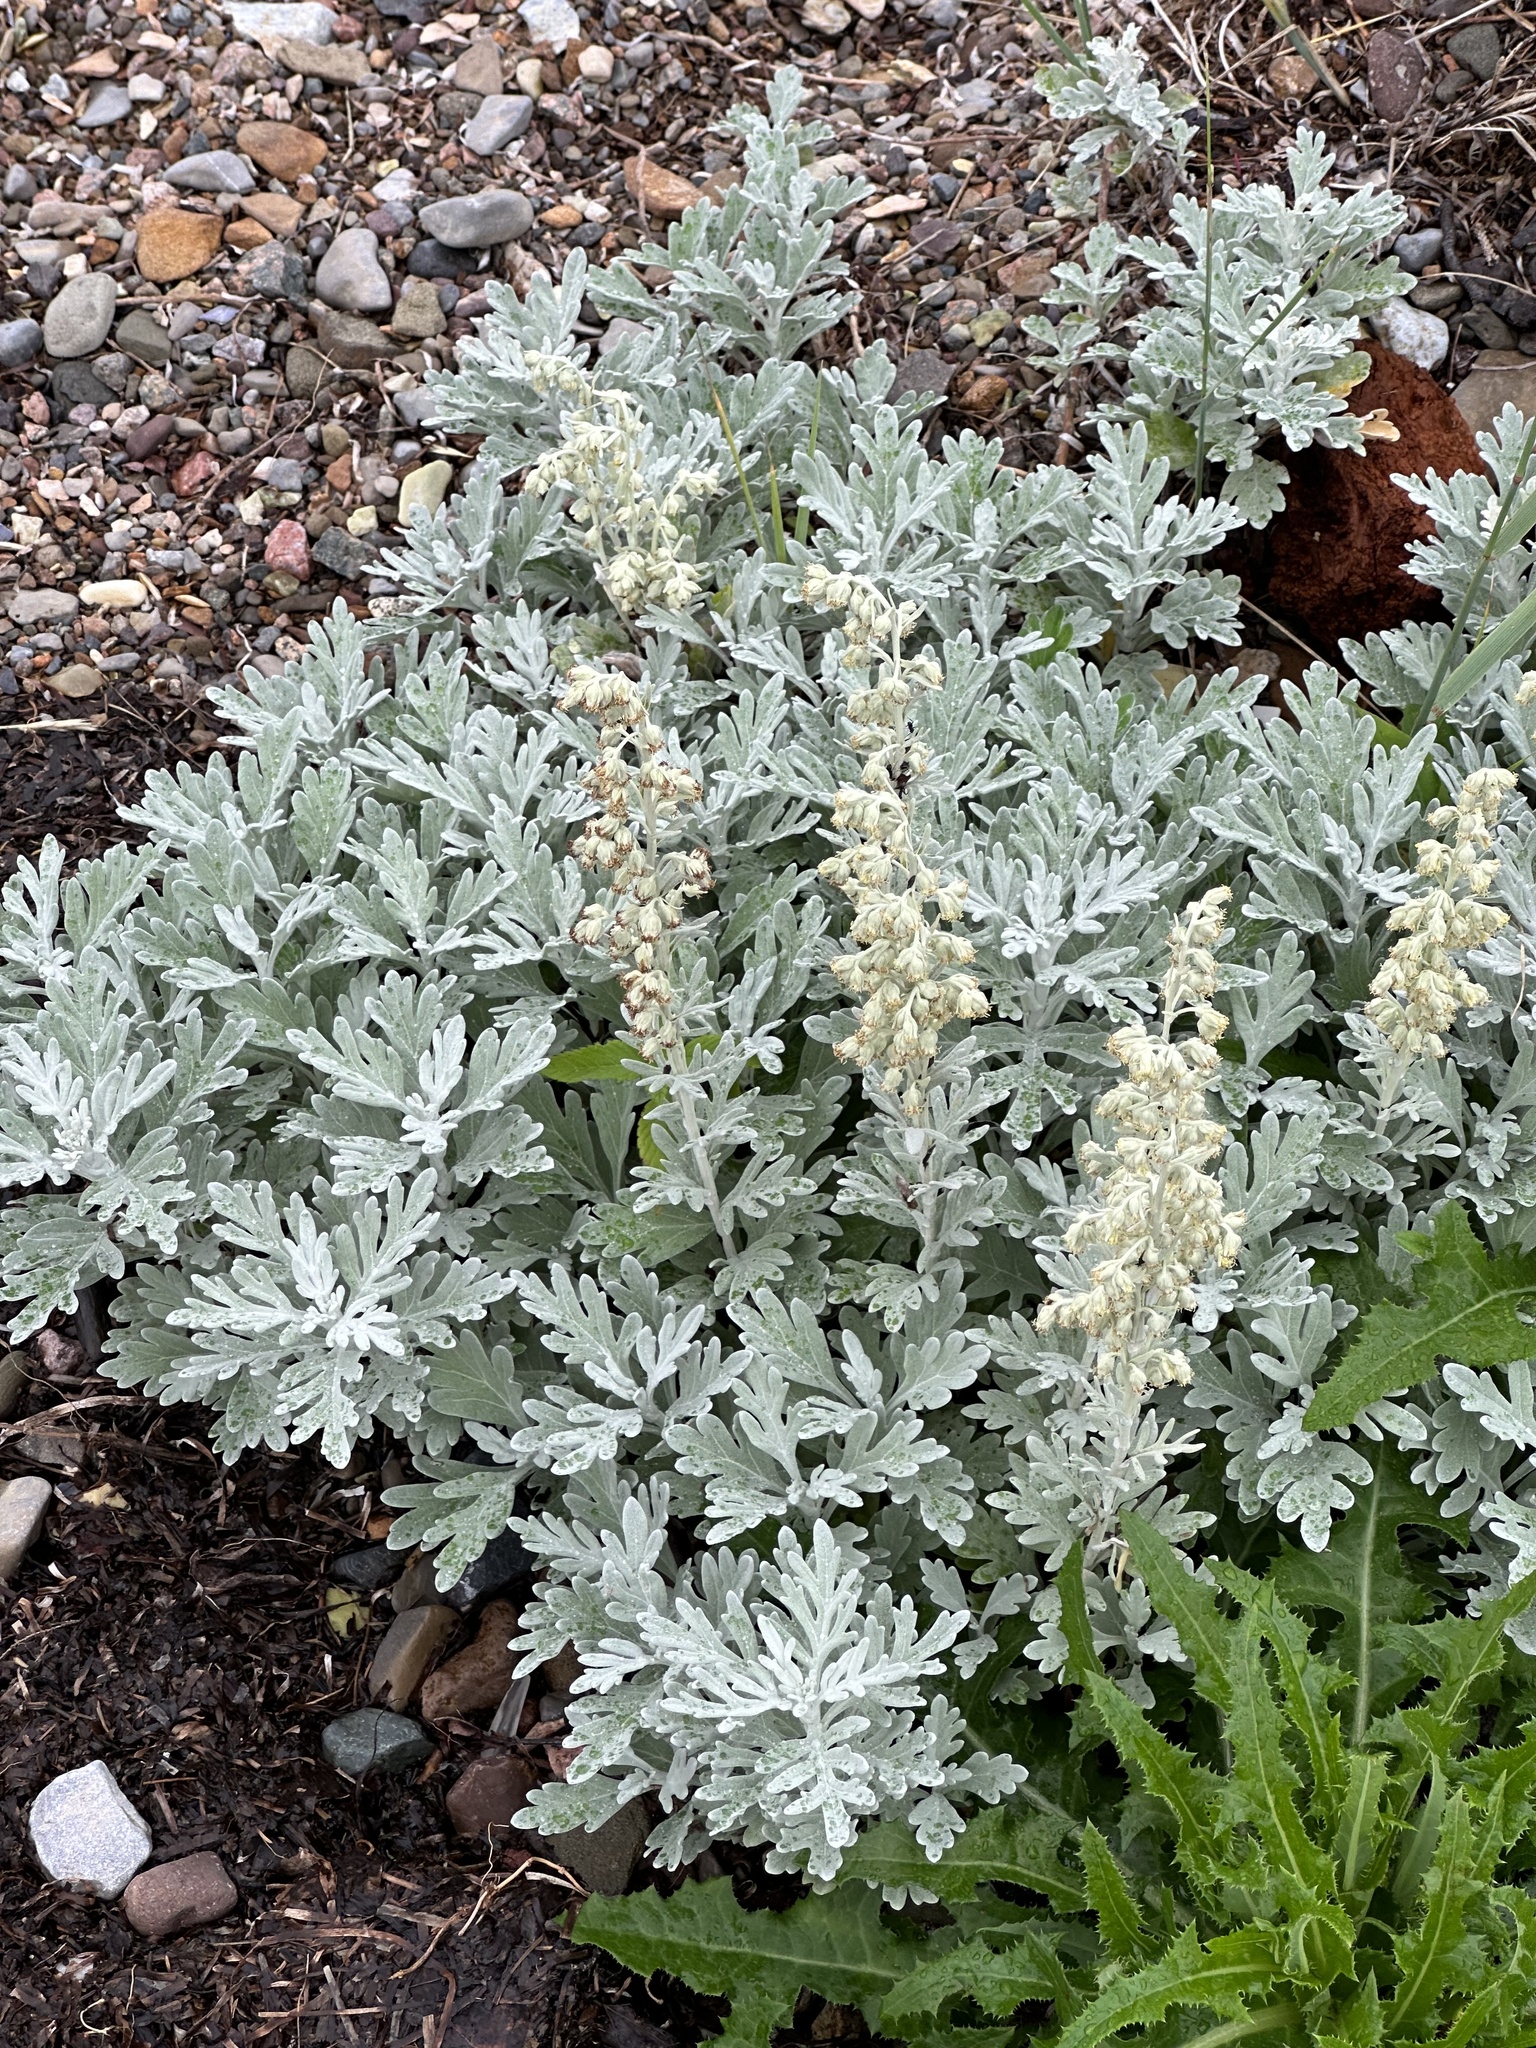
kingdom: Plantae
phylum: Tracheophyta
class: Magnoliopsida
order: Asterales
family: Asteraceae
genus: Artemisia
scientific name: Artemisia stelleriana
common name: Beach wormwood
